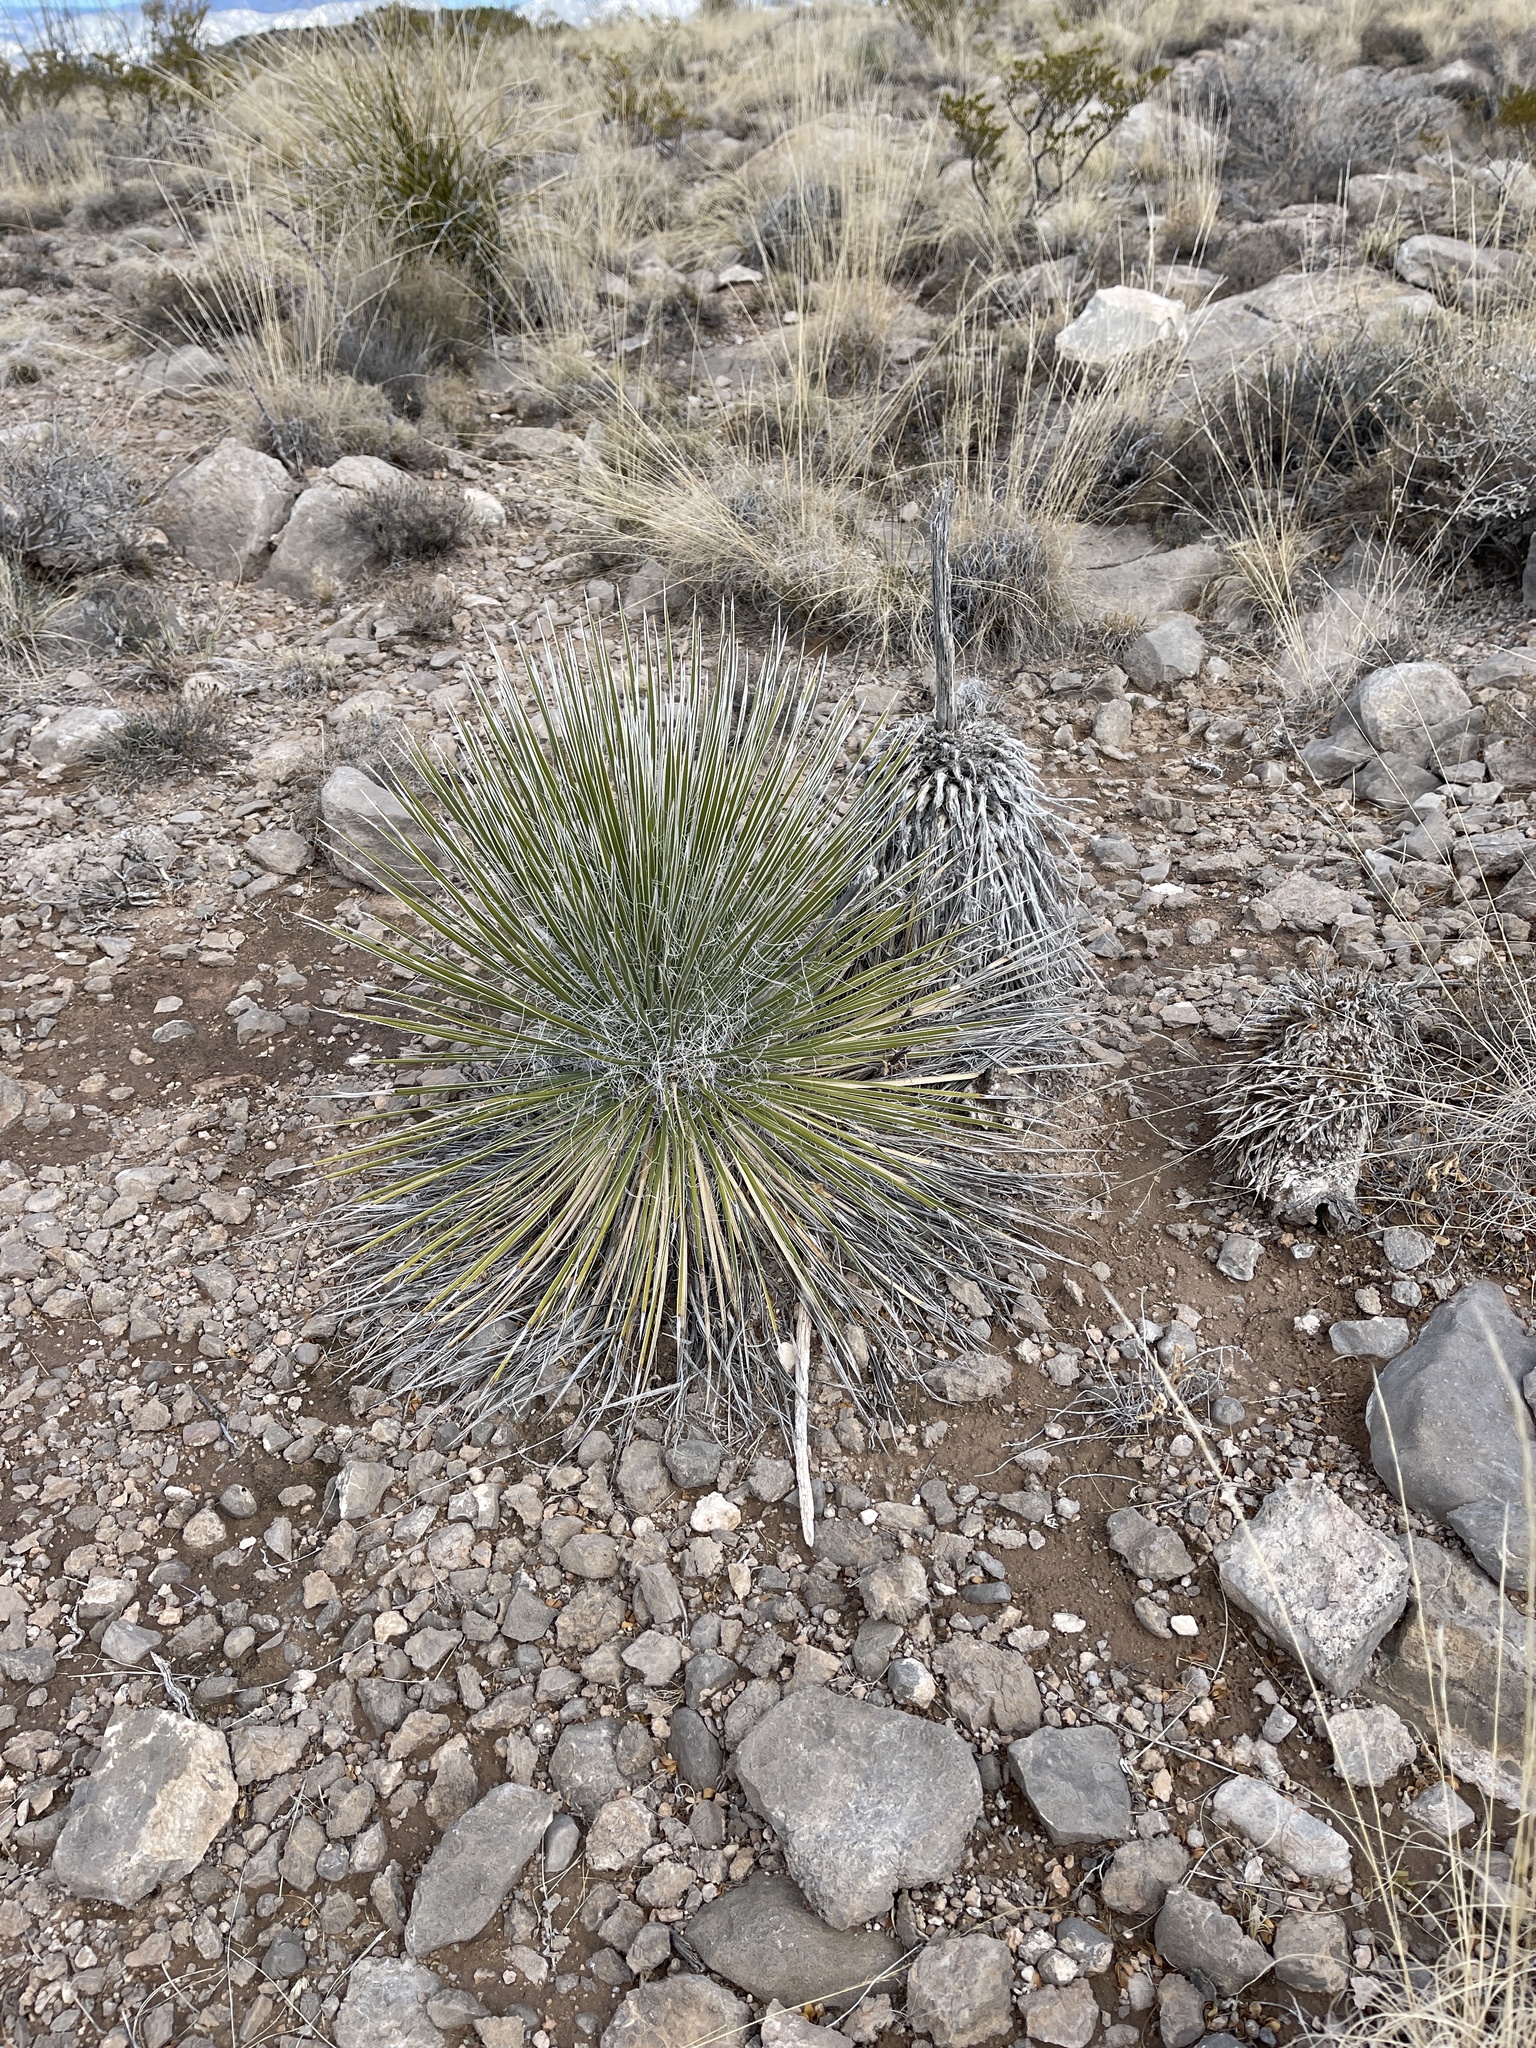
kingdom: Plantae
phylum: Tracheophyta
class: Liliopsida
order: Asparagales
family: Asparagaceae
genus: Yucca
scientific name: Yucca elata
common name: Palmella
